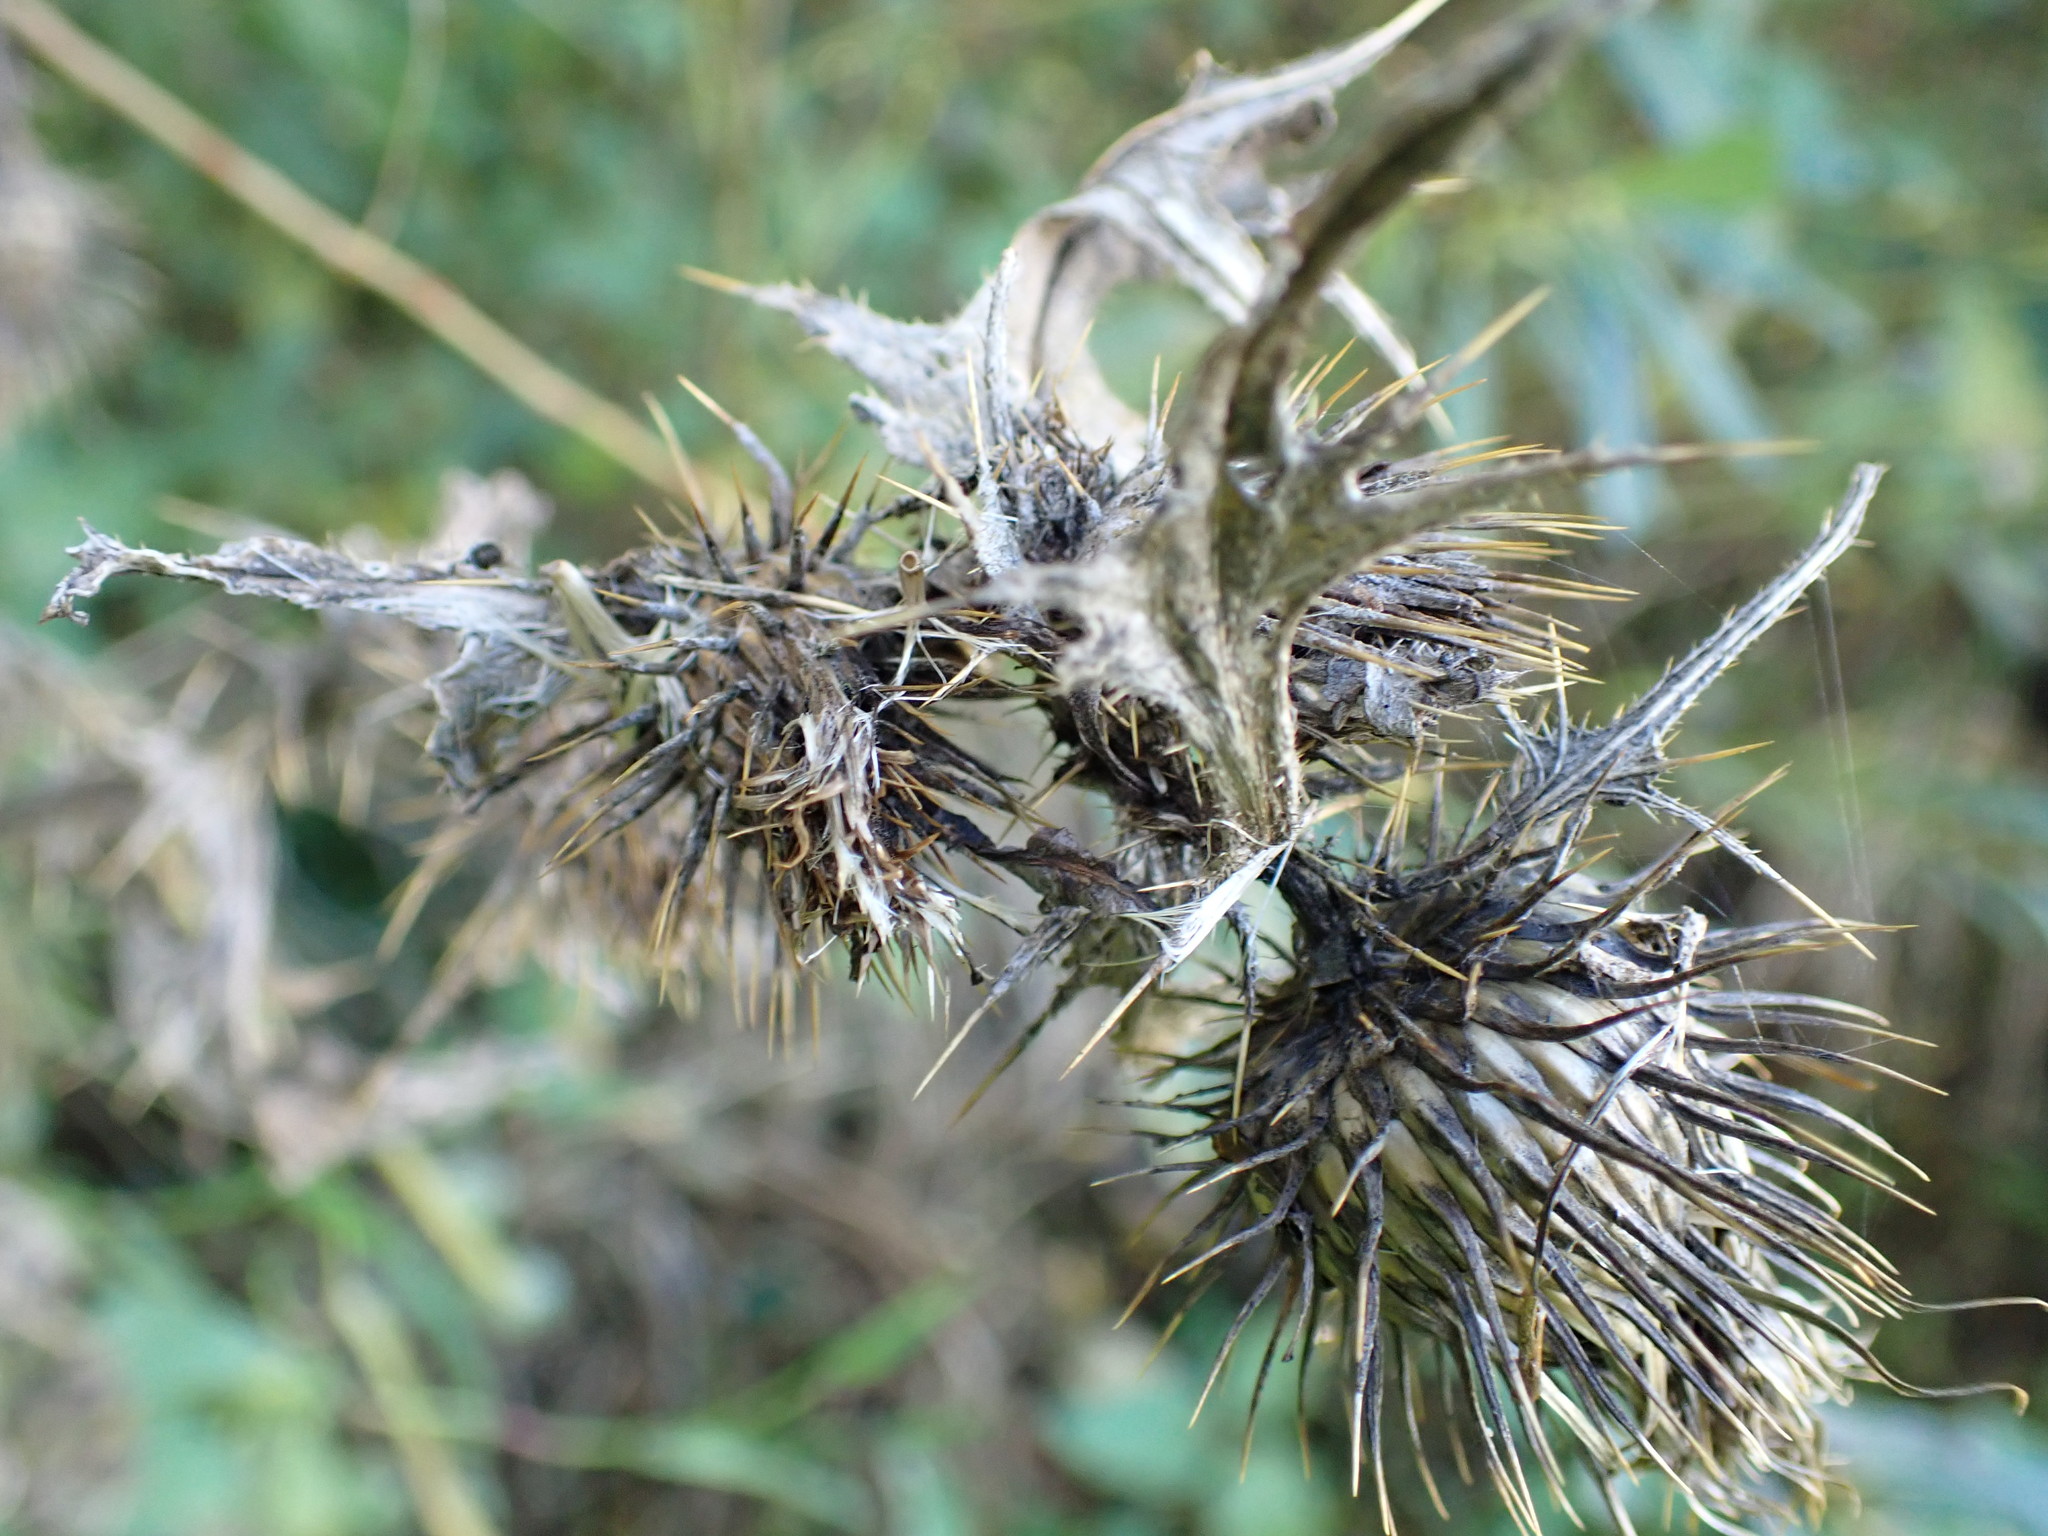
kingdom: Plantae
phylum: Tracheophyta
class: Magnoliopsida
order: Asterales
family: Asteraceae
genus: Cirsium
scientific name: Cirsium vulgare
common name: Bull thistle
